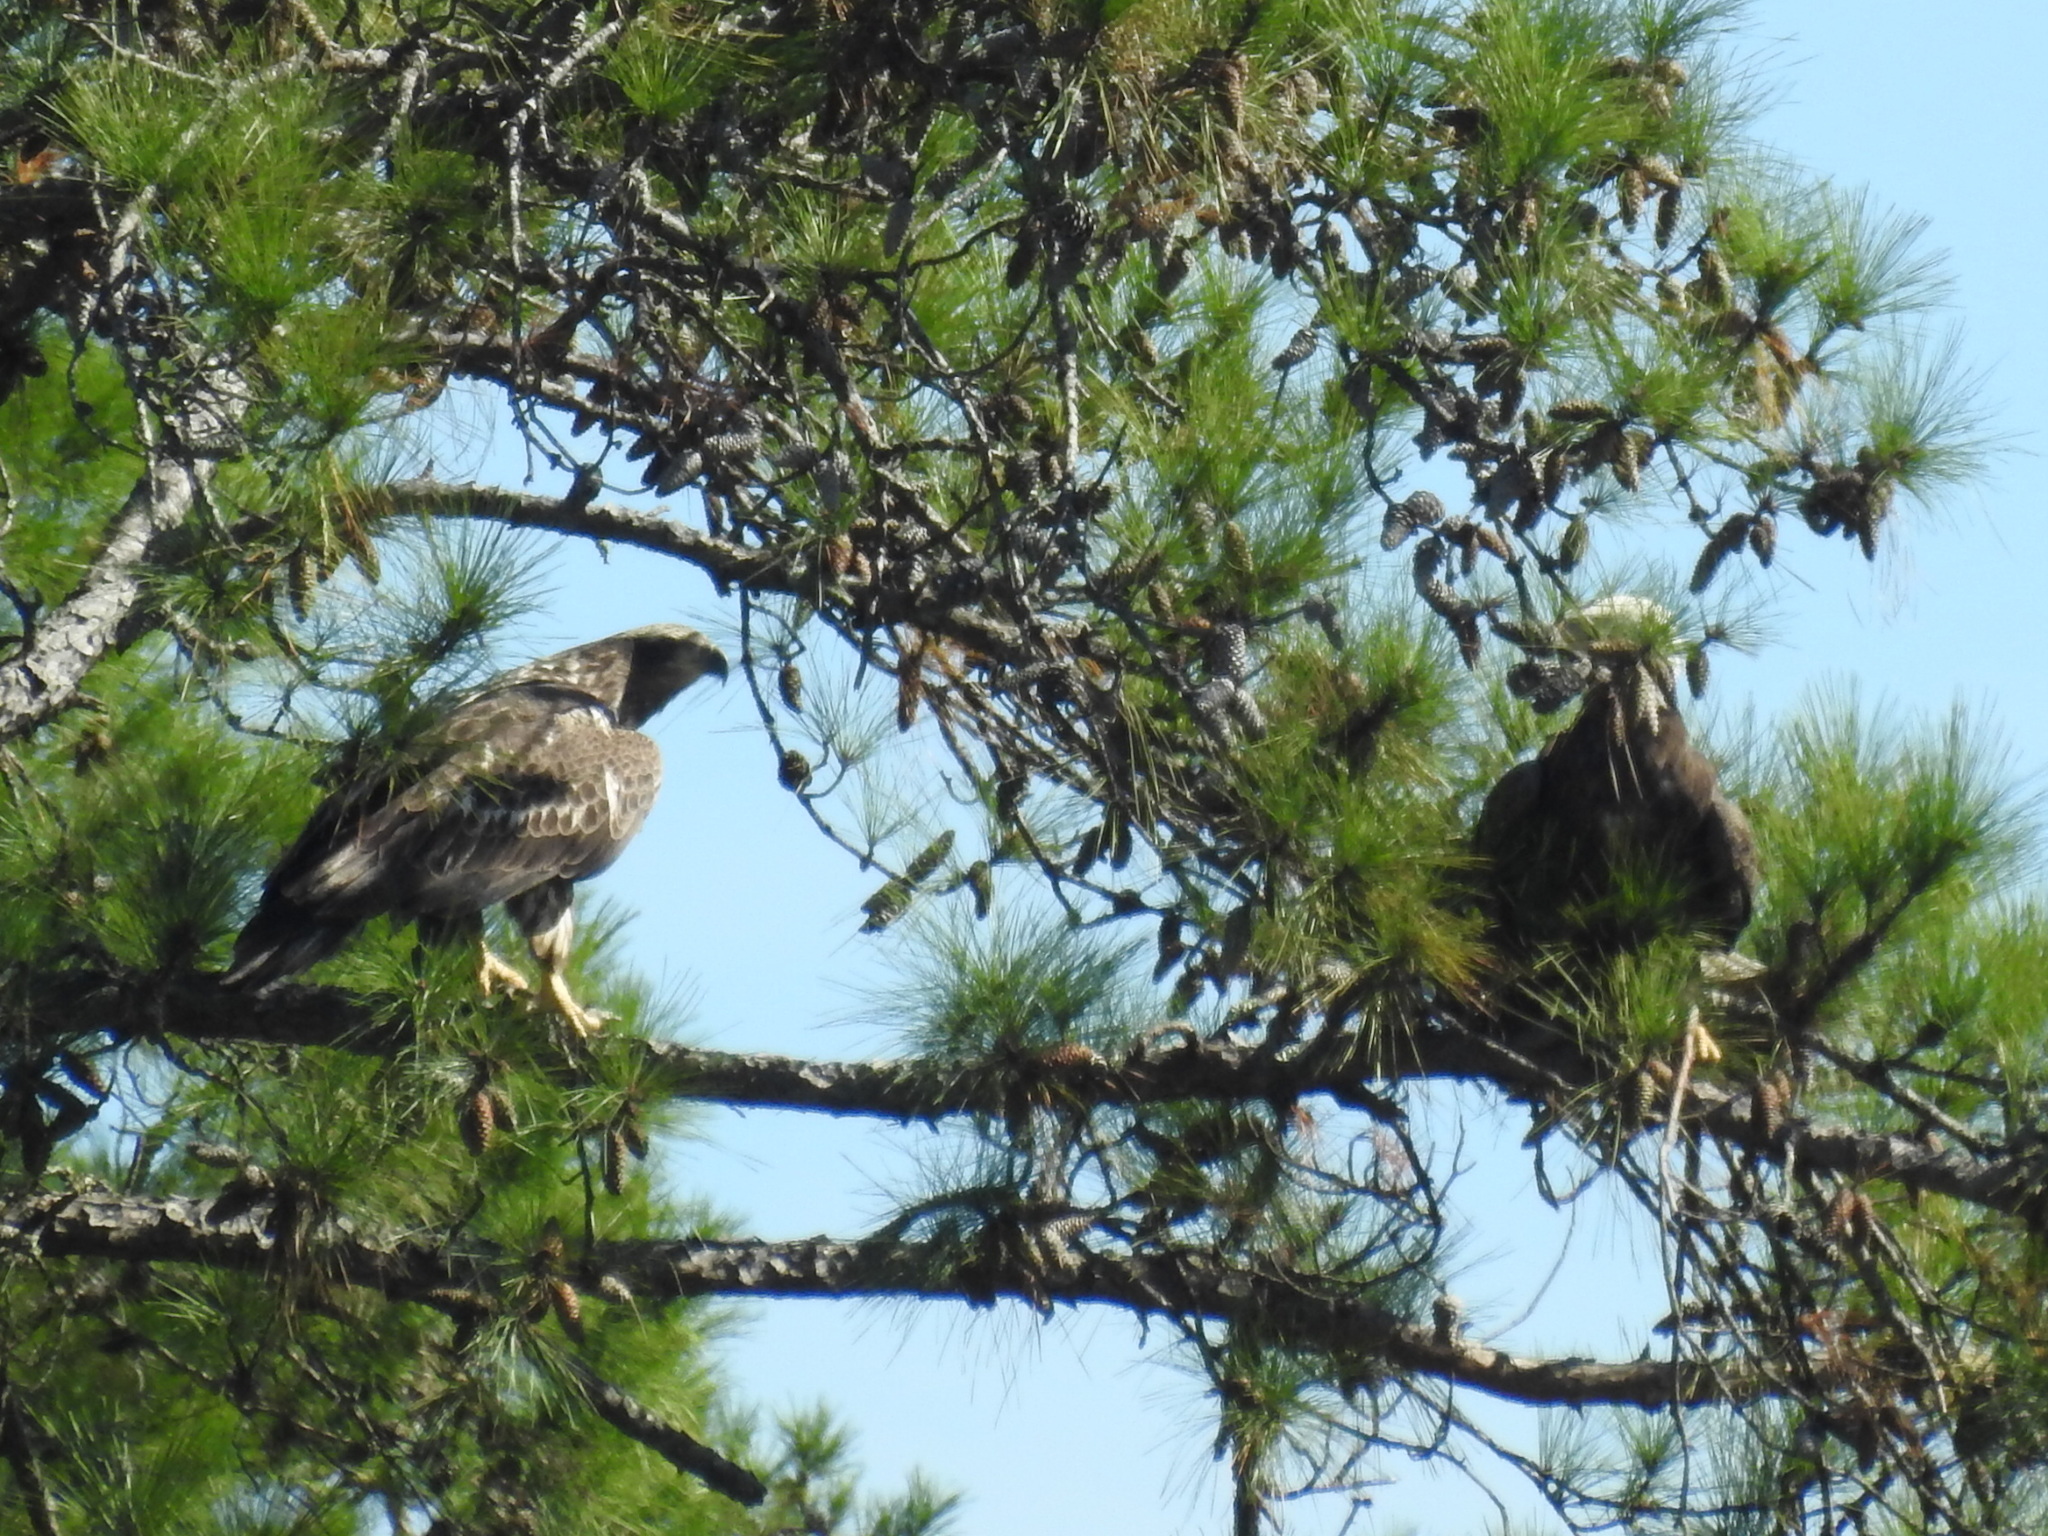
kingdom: Animalia
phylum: Chordata
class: Aves
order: Accipitriformes
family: Accipitridae
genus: Haliaeetus
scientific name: Haliaeetus leucocephalus
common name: Bald eagle
